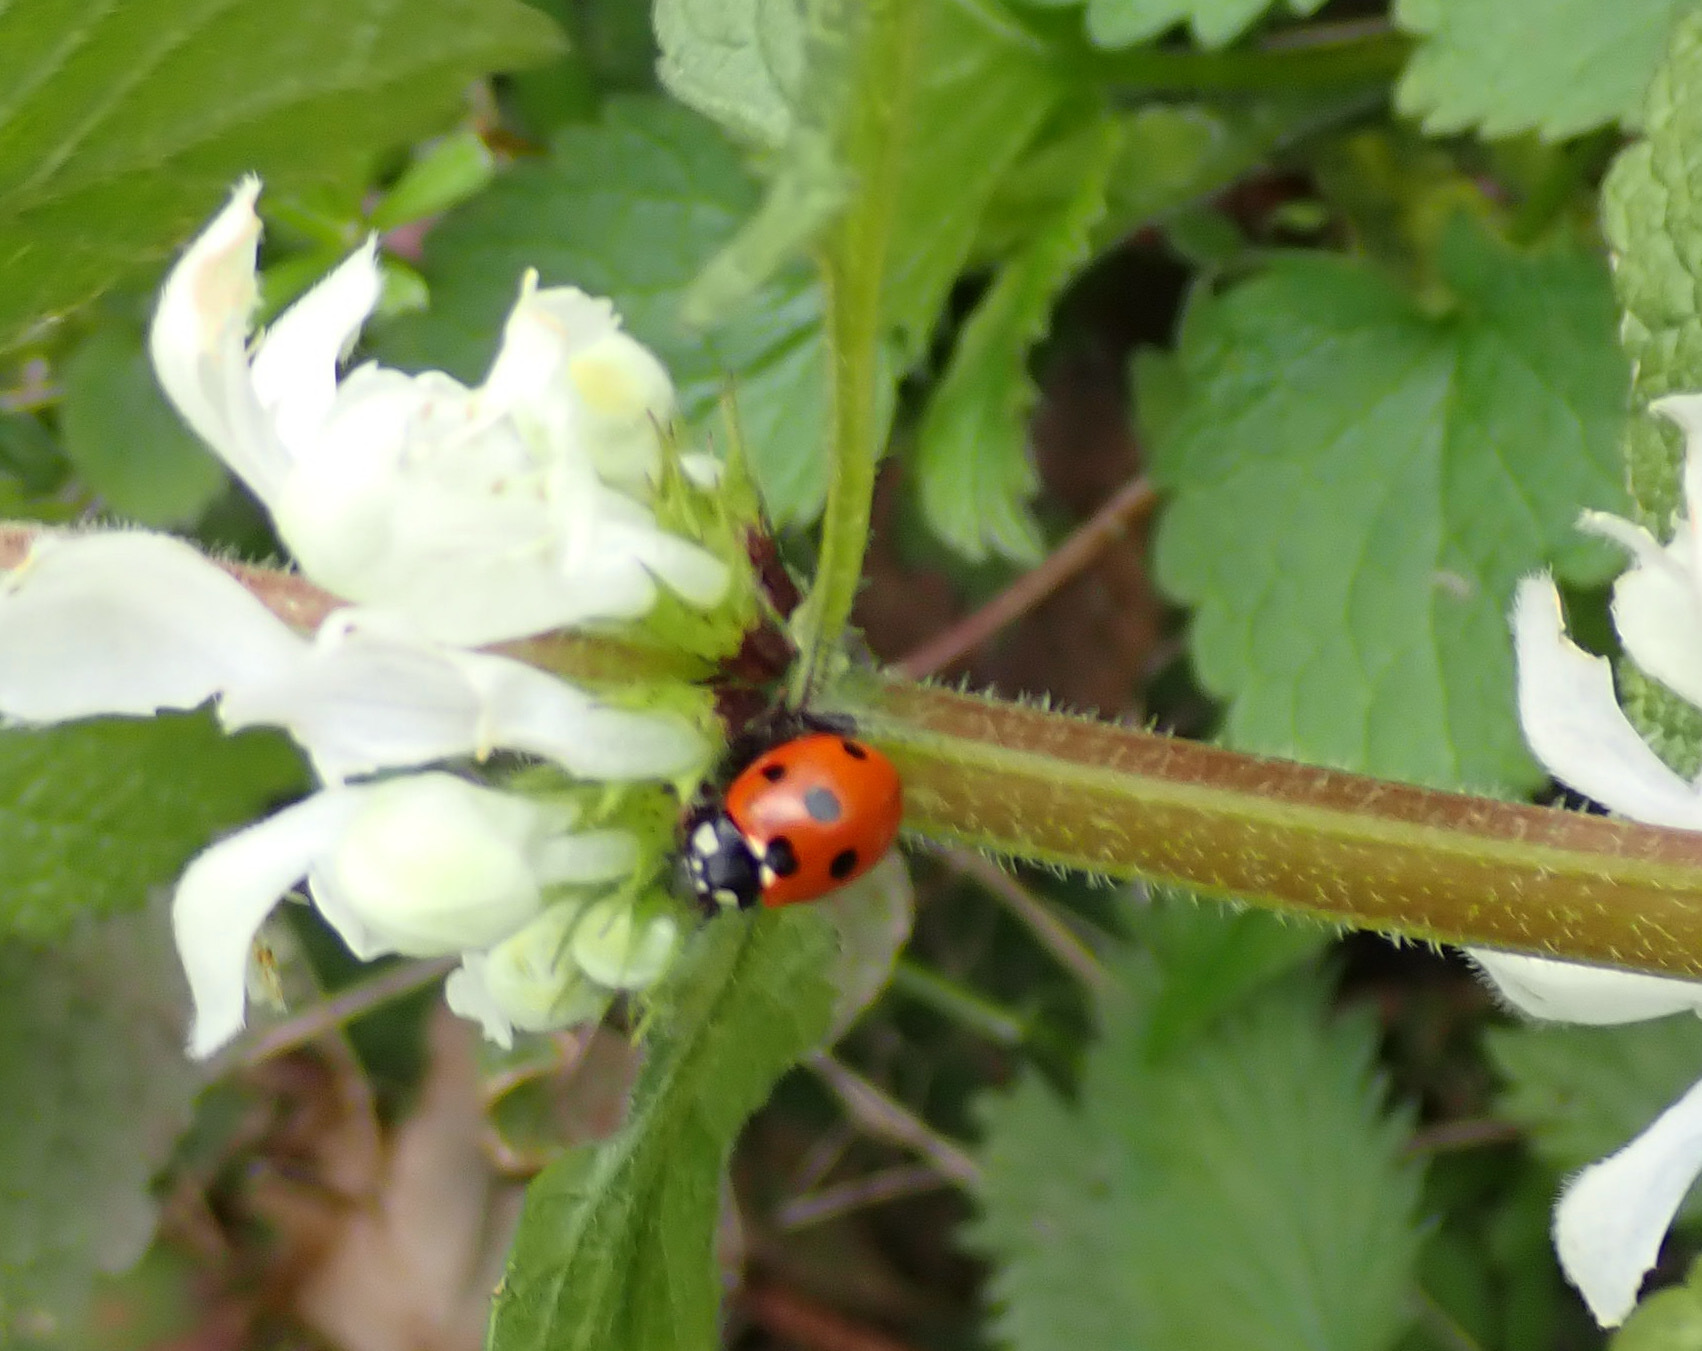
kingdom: Animalia
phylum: Arthropoda
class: Insecta
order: Coleoptera
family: Coccinellidae
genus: Coccinella
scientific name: Coccinella septempunctata
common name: Sevenspotted lady beetle
